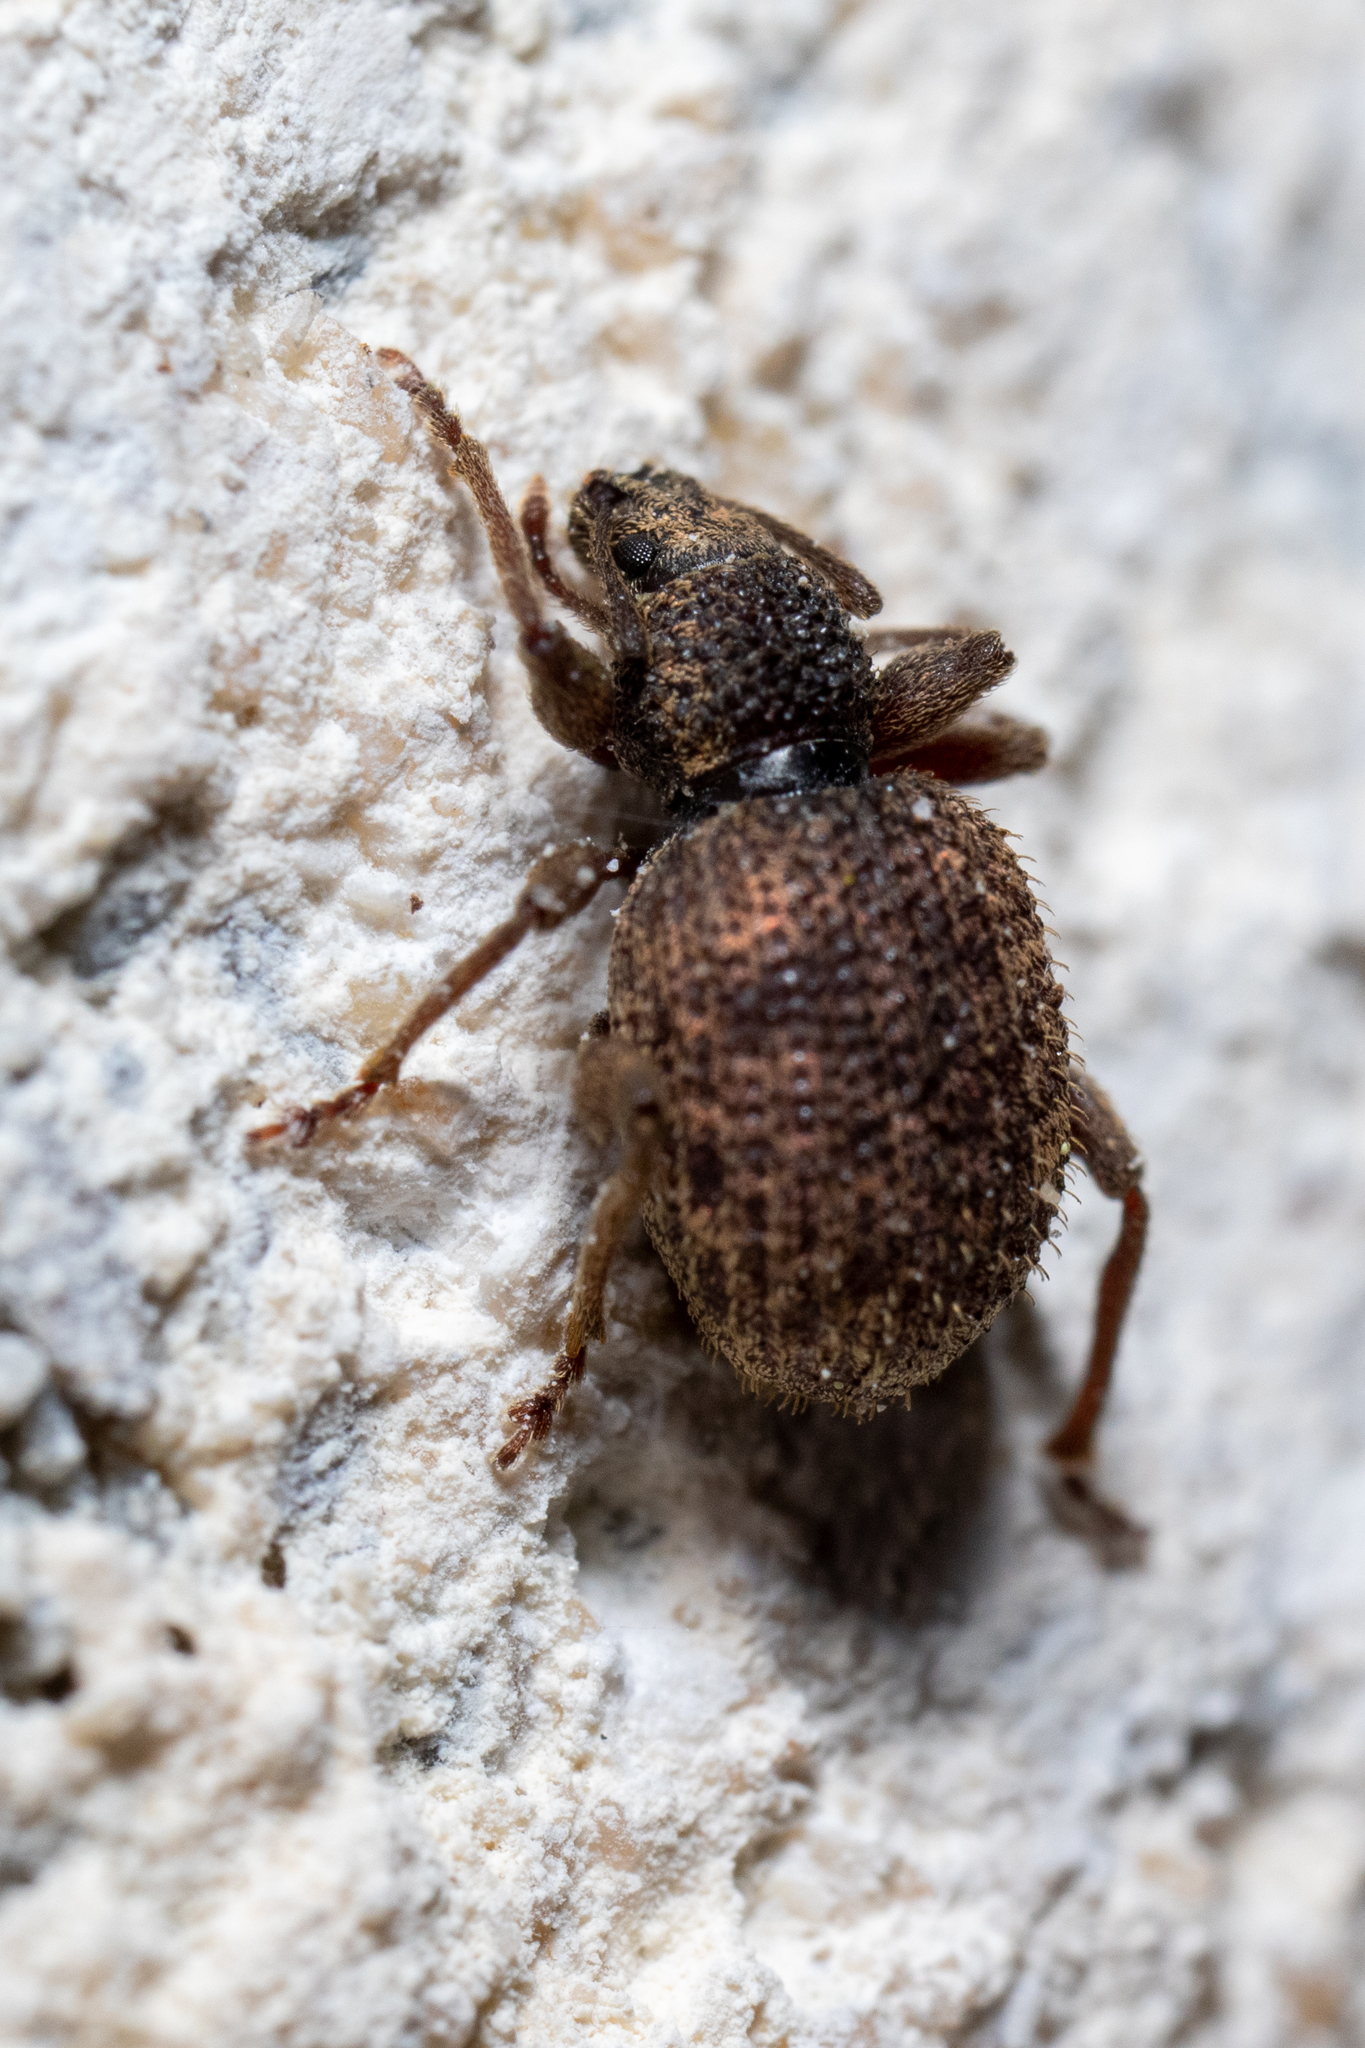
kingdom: Animalia
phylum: Arthropoda
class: Insecta
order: Coleoptera
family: Curculionidae
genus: Otiorhynchus
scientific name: Otiorhynchus crataegi
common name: Privet weevil
